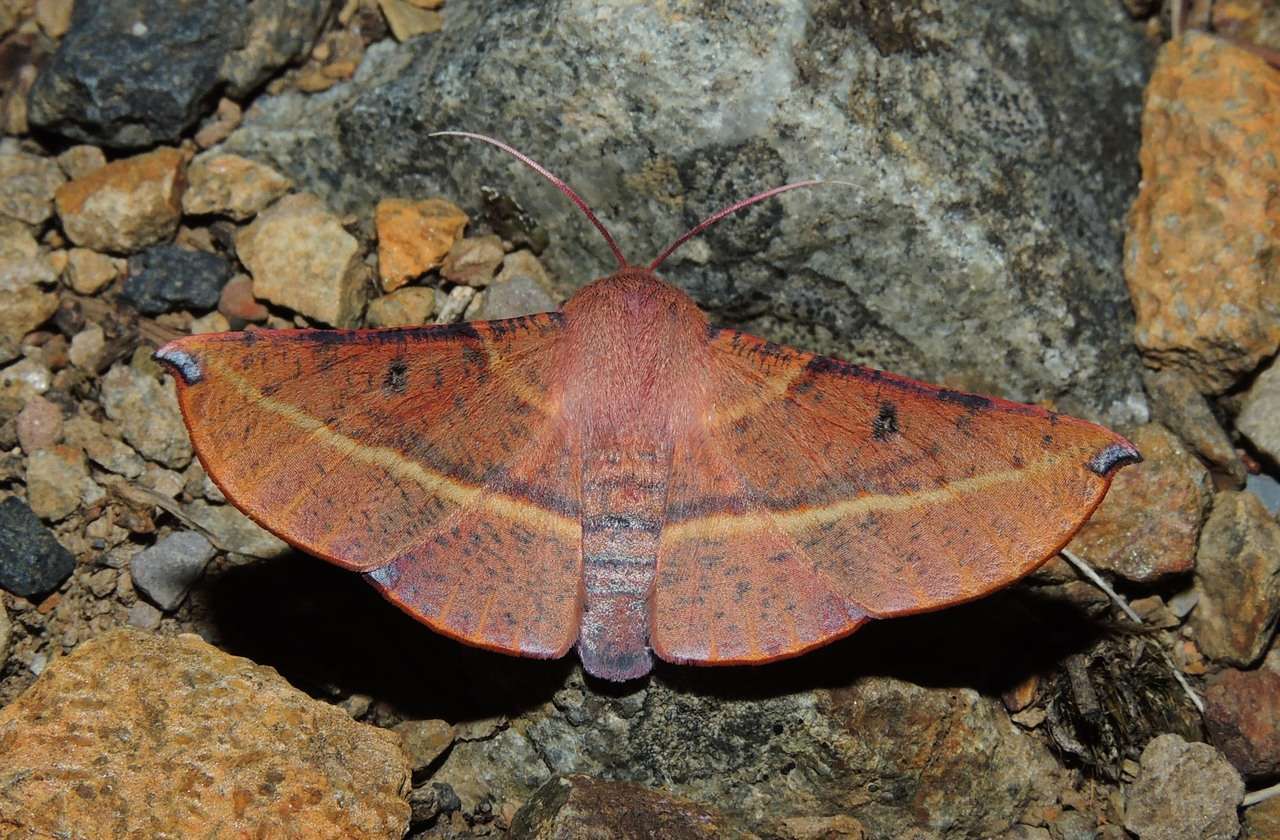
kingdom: Animalia
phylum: Arthropoda
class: Insecta
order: Lepidoptera
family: Geometridae
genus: Oenochroma
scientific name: Oenochroma vinaria
